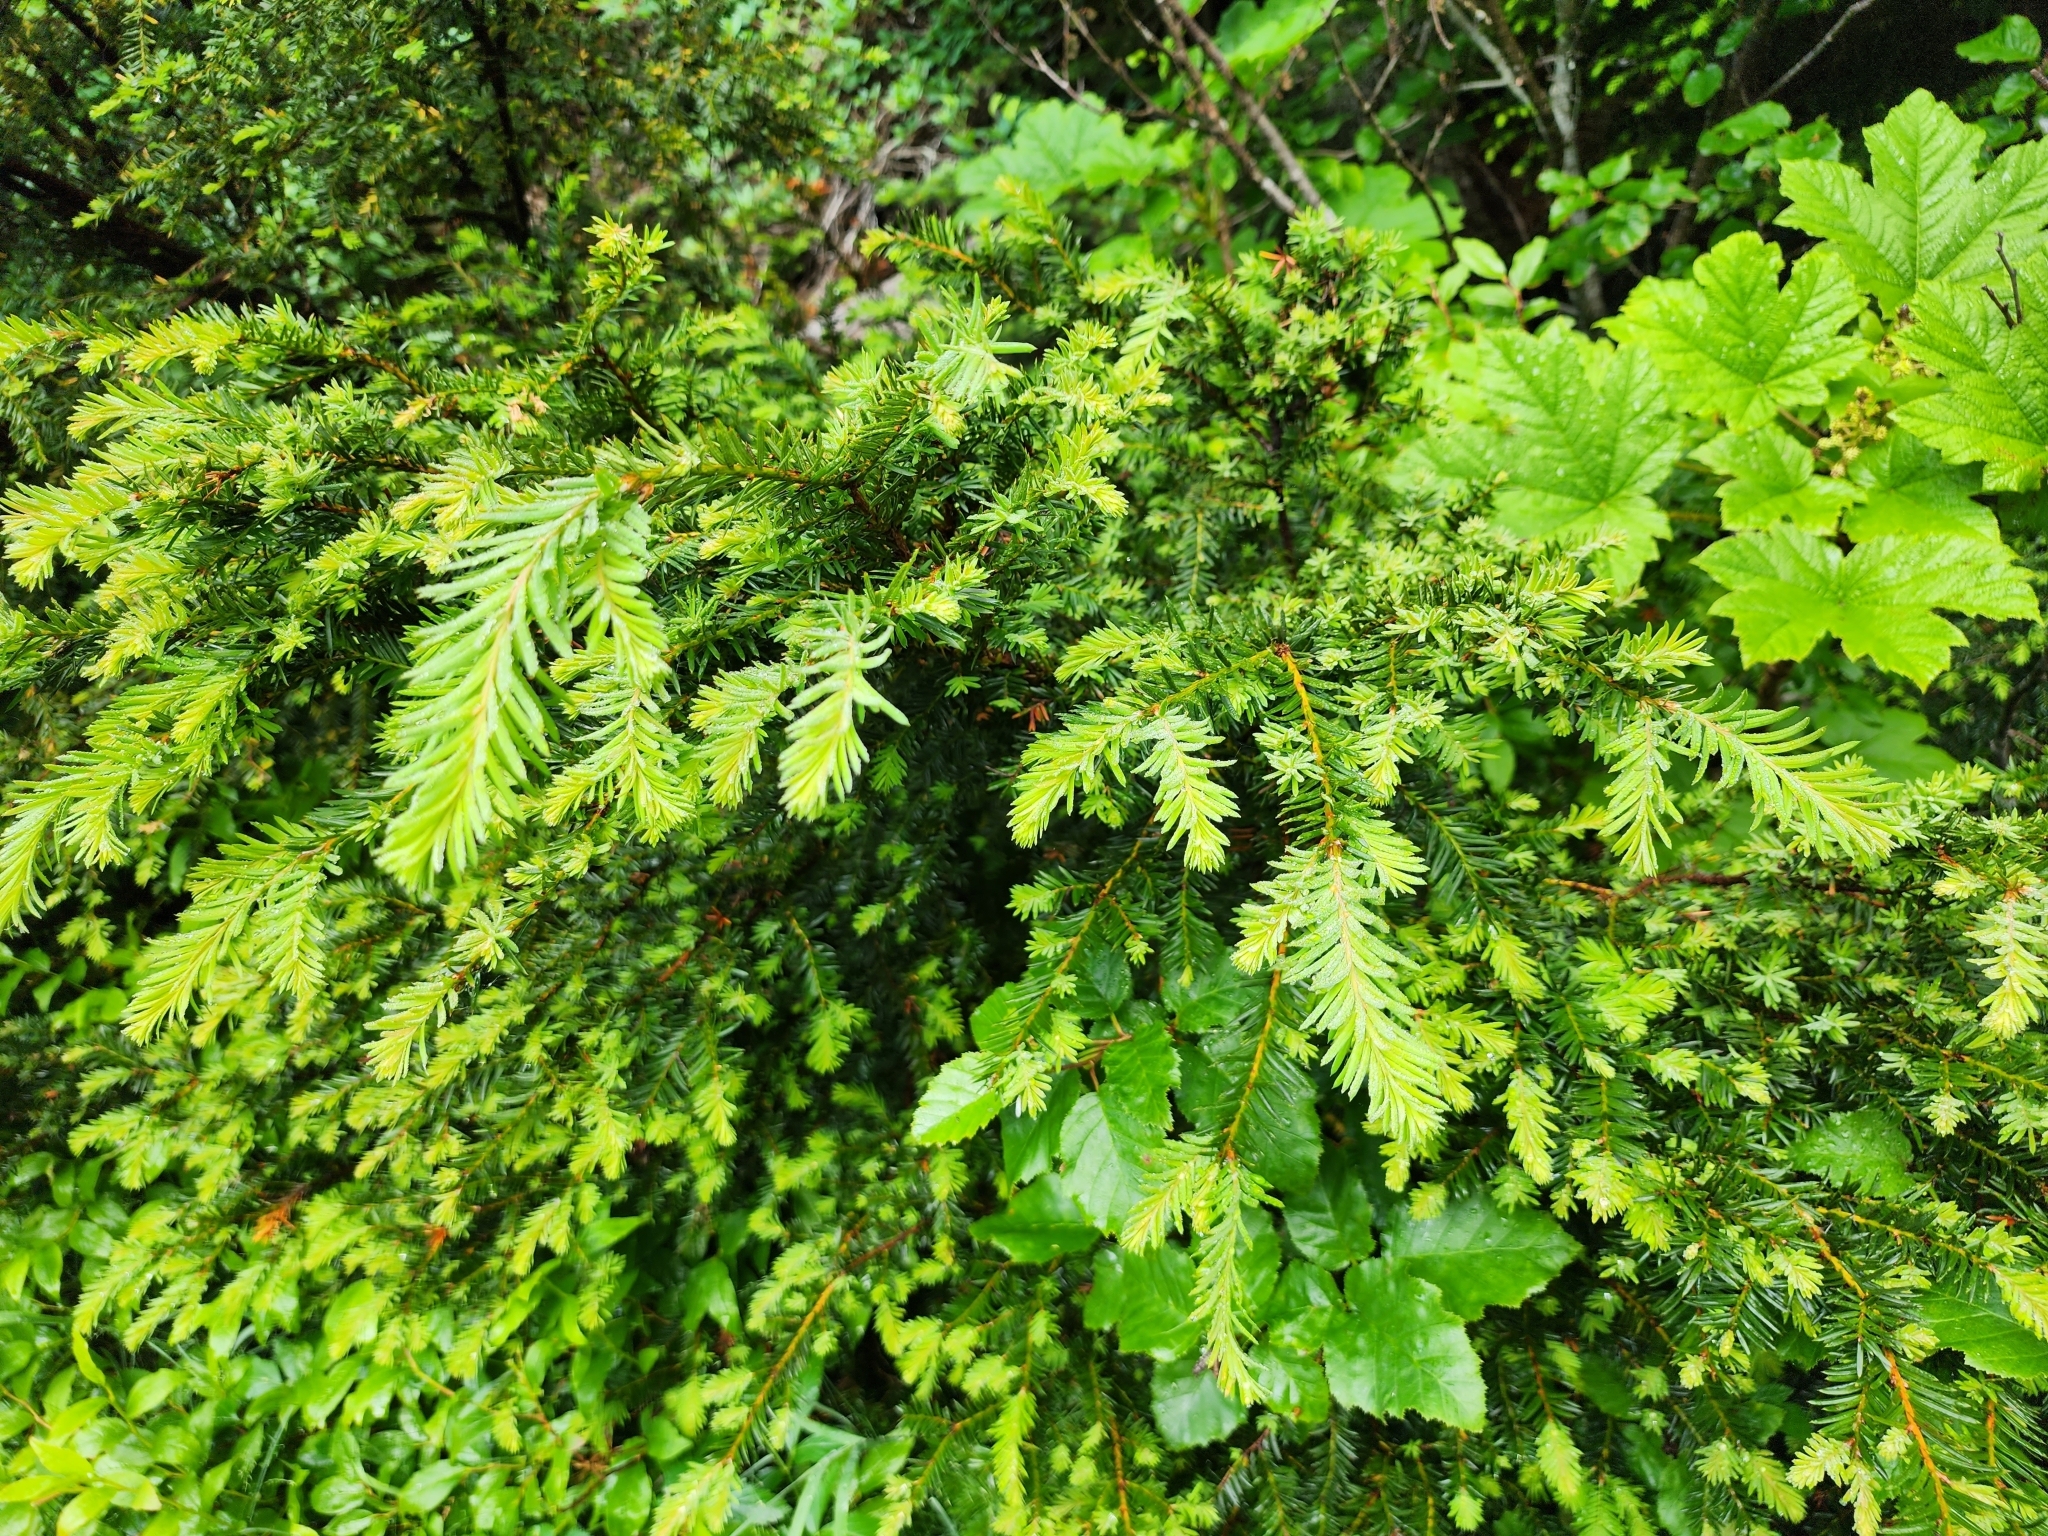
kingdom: Plantae
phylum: Tracheophyta
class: Pinopsida
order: Pinales
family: Pinaceae
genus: Tsuga
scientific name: Tsuga heterophylla
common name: Western hemlock
